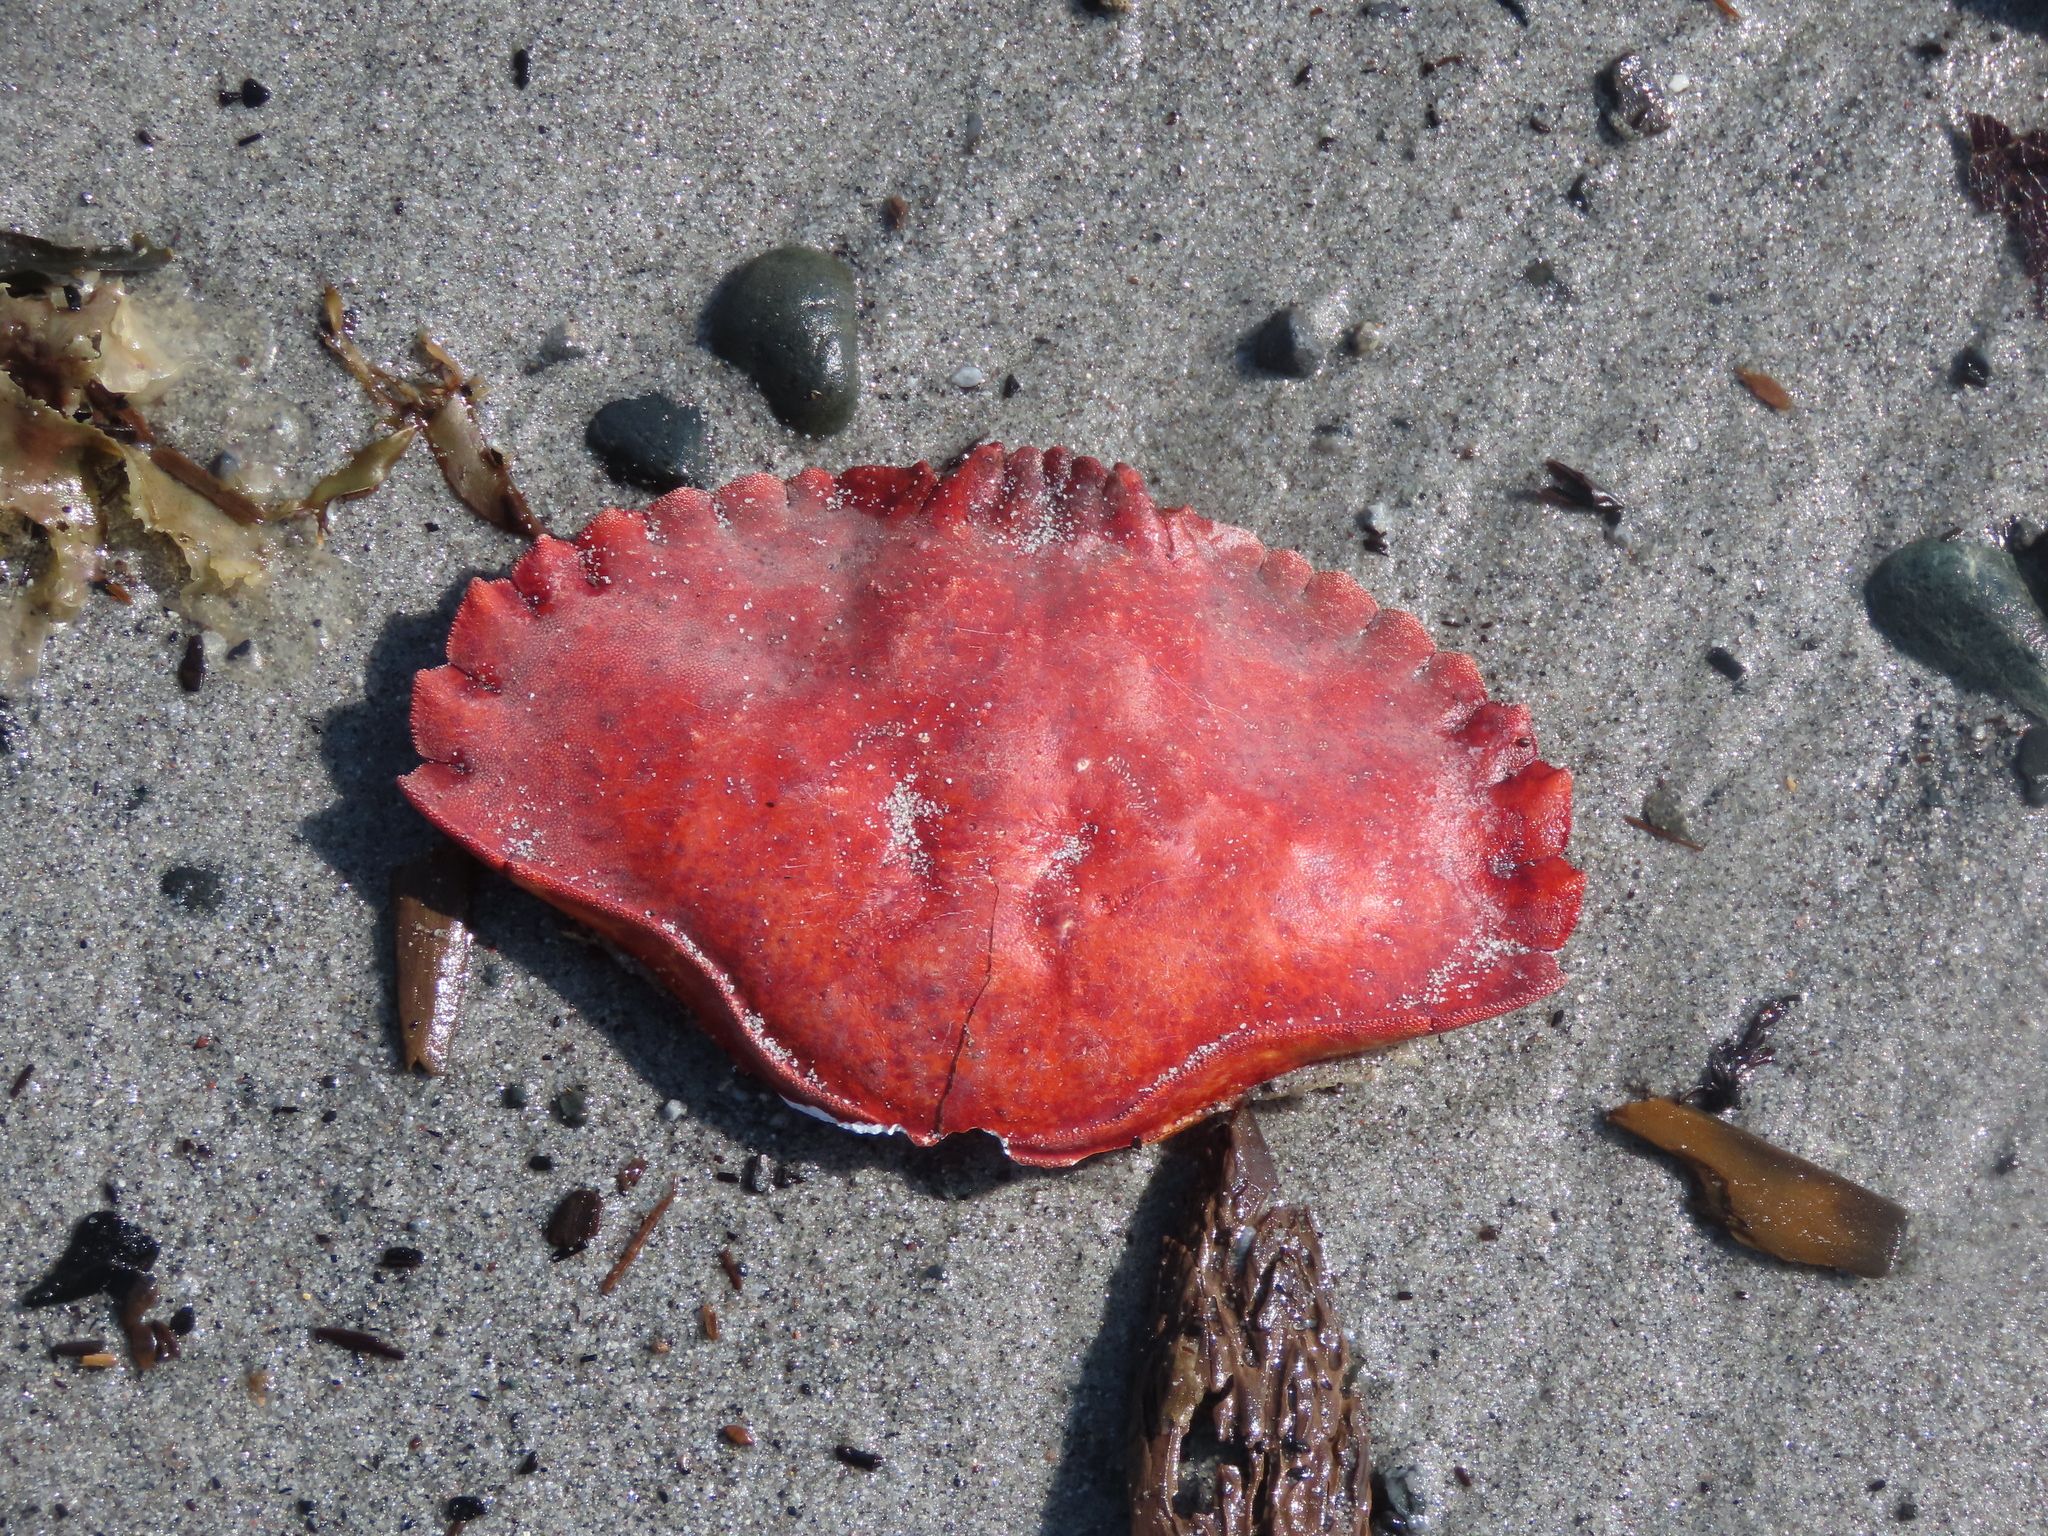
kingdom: Animalia
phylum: Arthropoda
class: Malacostraca
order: Decapoda
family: Cancridae
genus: Cancer
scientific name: Cancer productus
